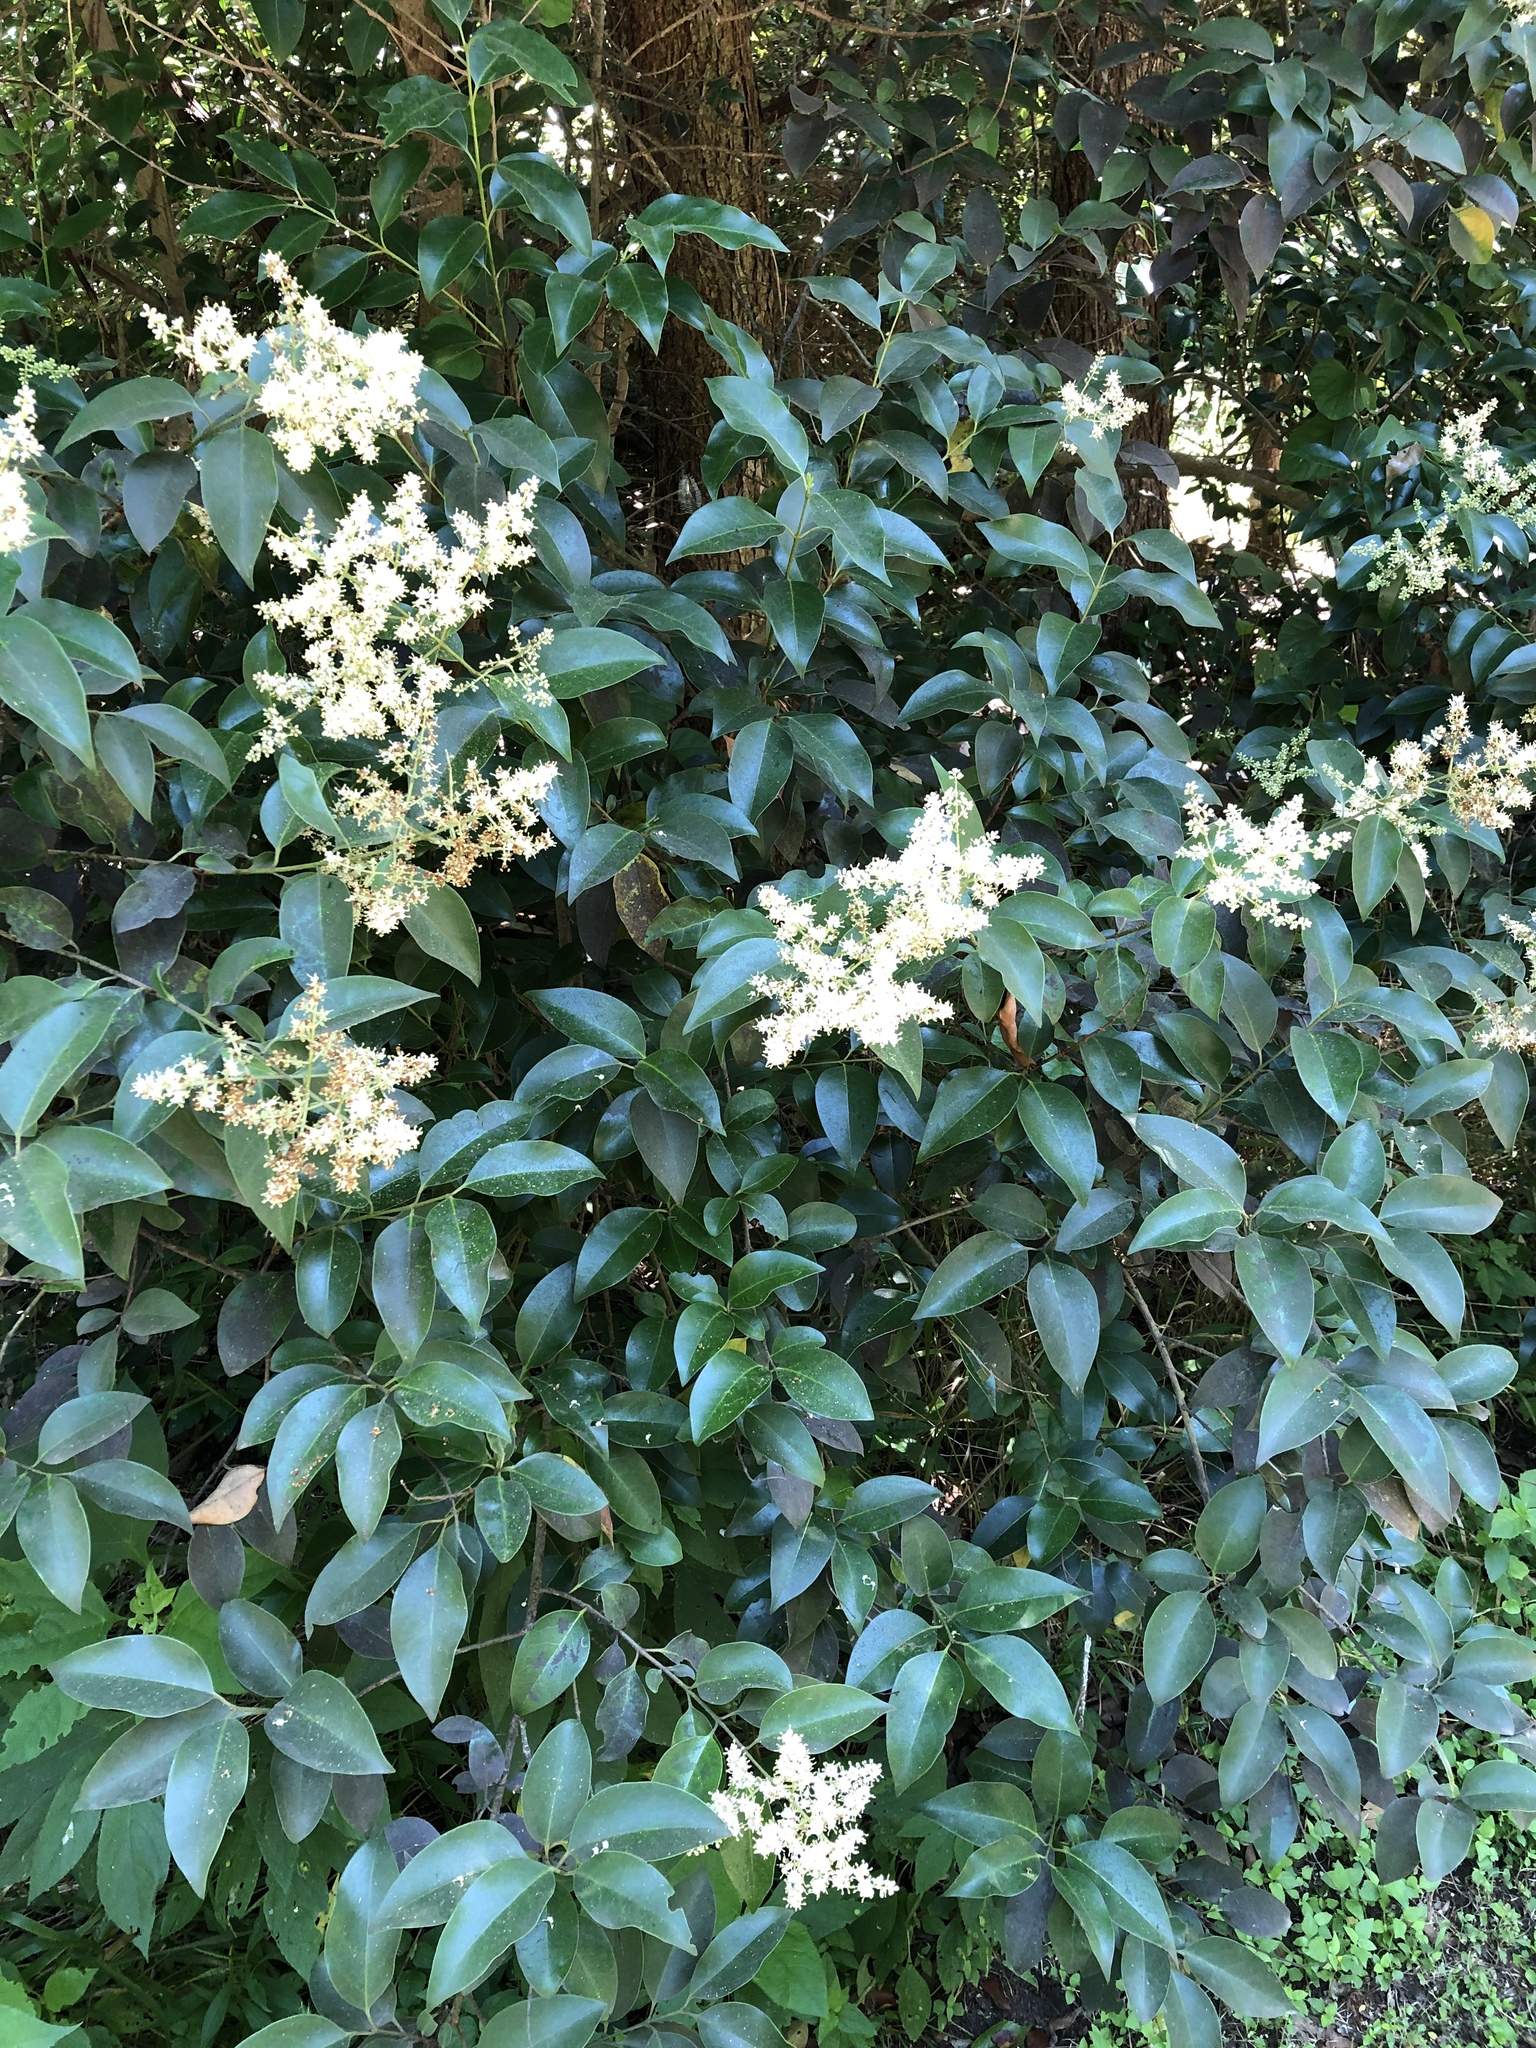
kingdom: Plantae
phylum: Tracheophyta
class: Magnoliopsida
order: Lamiales
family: Oleaceae
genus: Ligustrum
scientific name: Ligustrum lucidum
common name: Glossy privet
